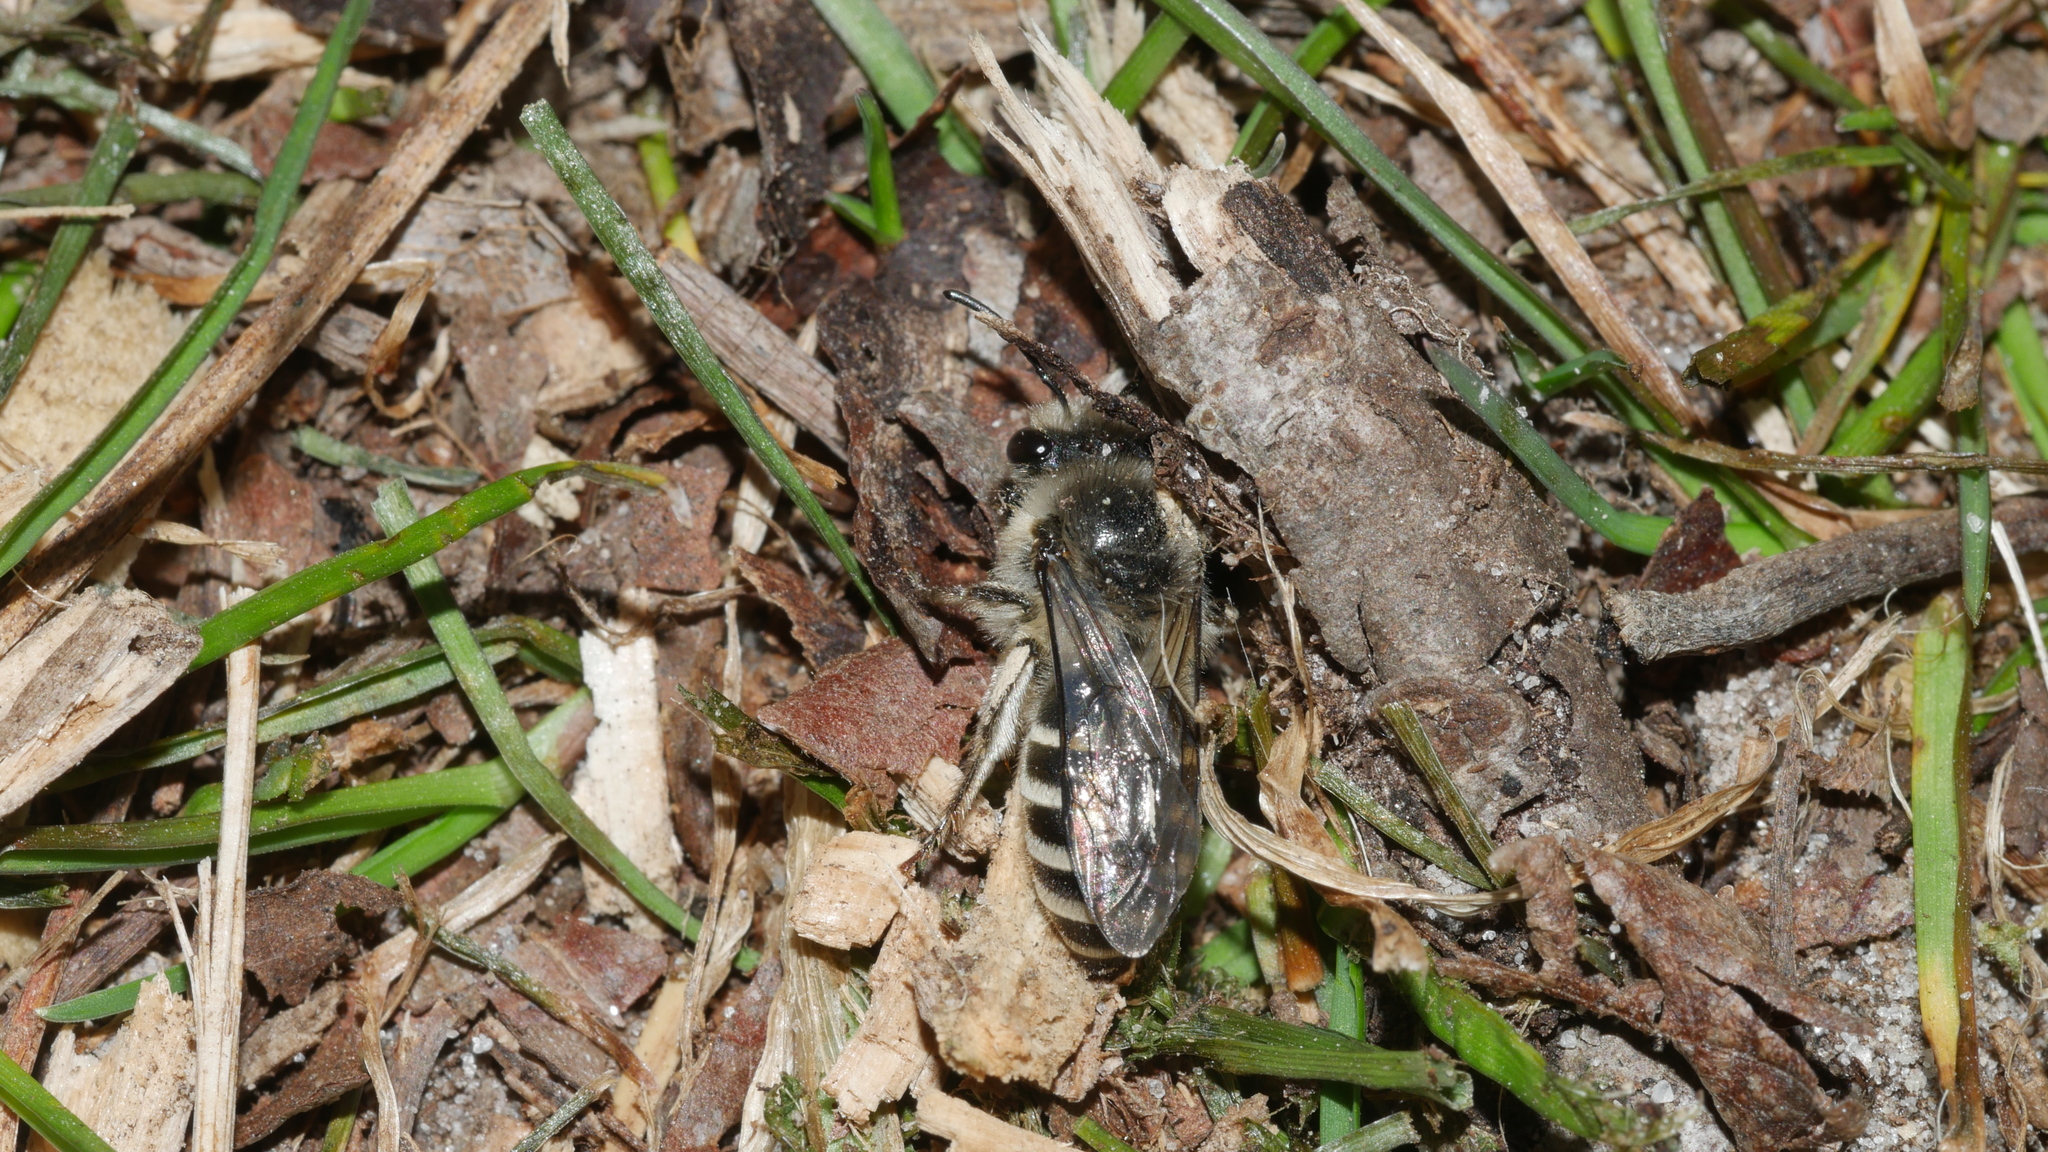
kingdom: Animalia
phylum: Arthropoda
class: Insecta
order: Hymenoptera
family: Colletidae
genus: Colletes
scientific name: Colletes inaequalis
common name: Unequal cellophane bee
